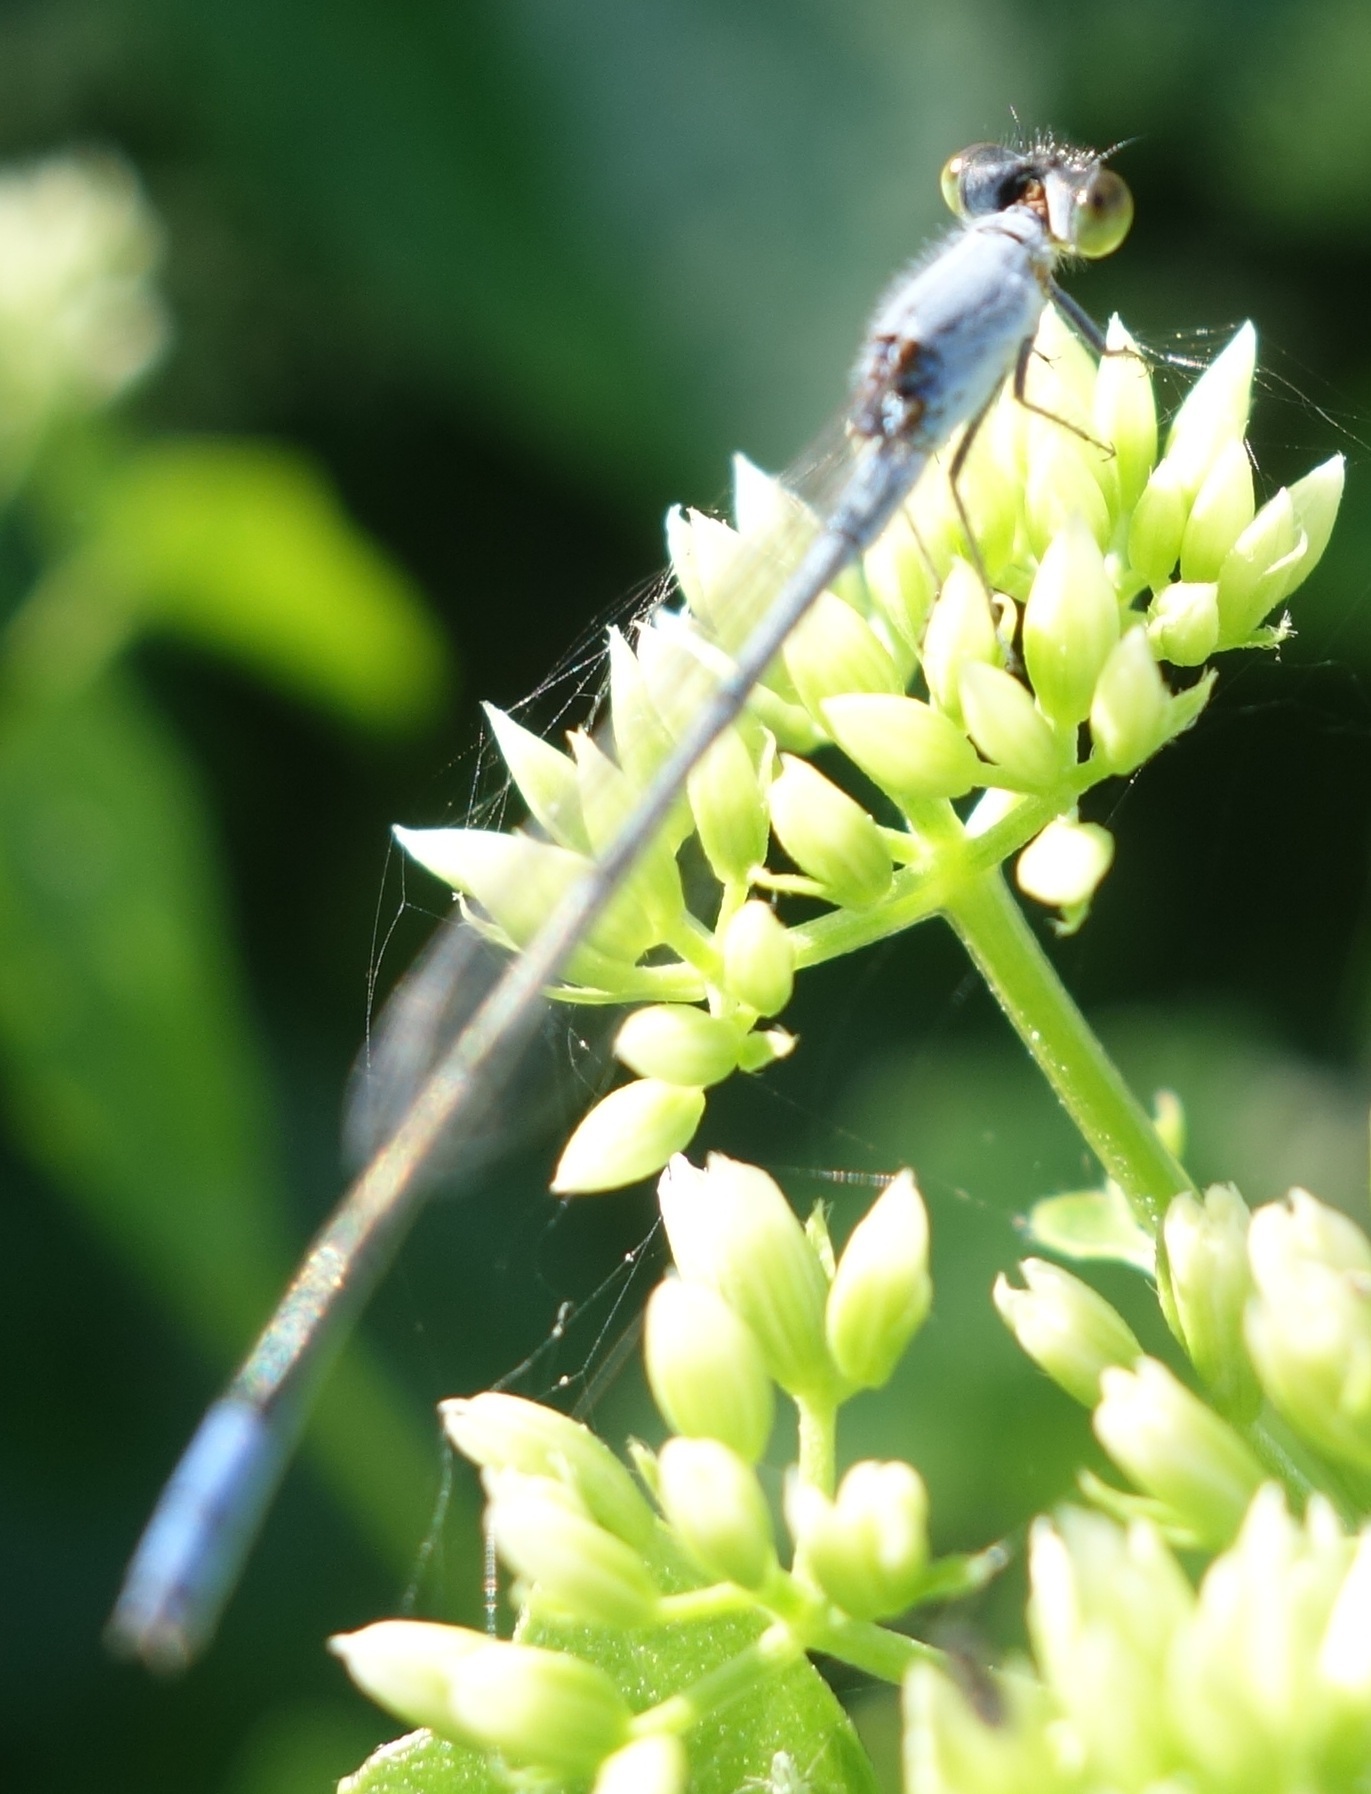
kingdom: Animalia
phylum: Arthropoda
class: Insecta
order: Odonata
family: Coenagrionidae
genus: Paracercion
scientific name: Paracercion calamorum
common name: Dusky lilysquatter
